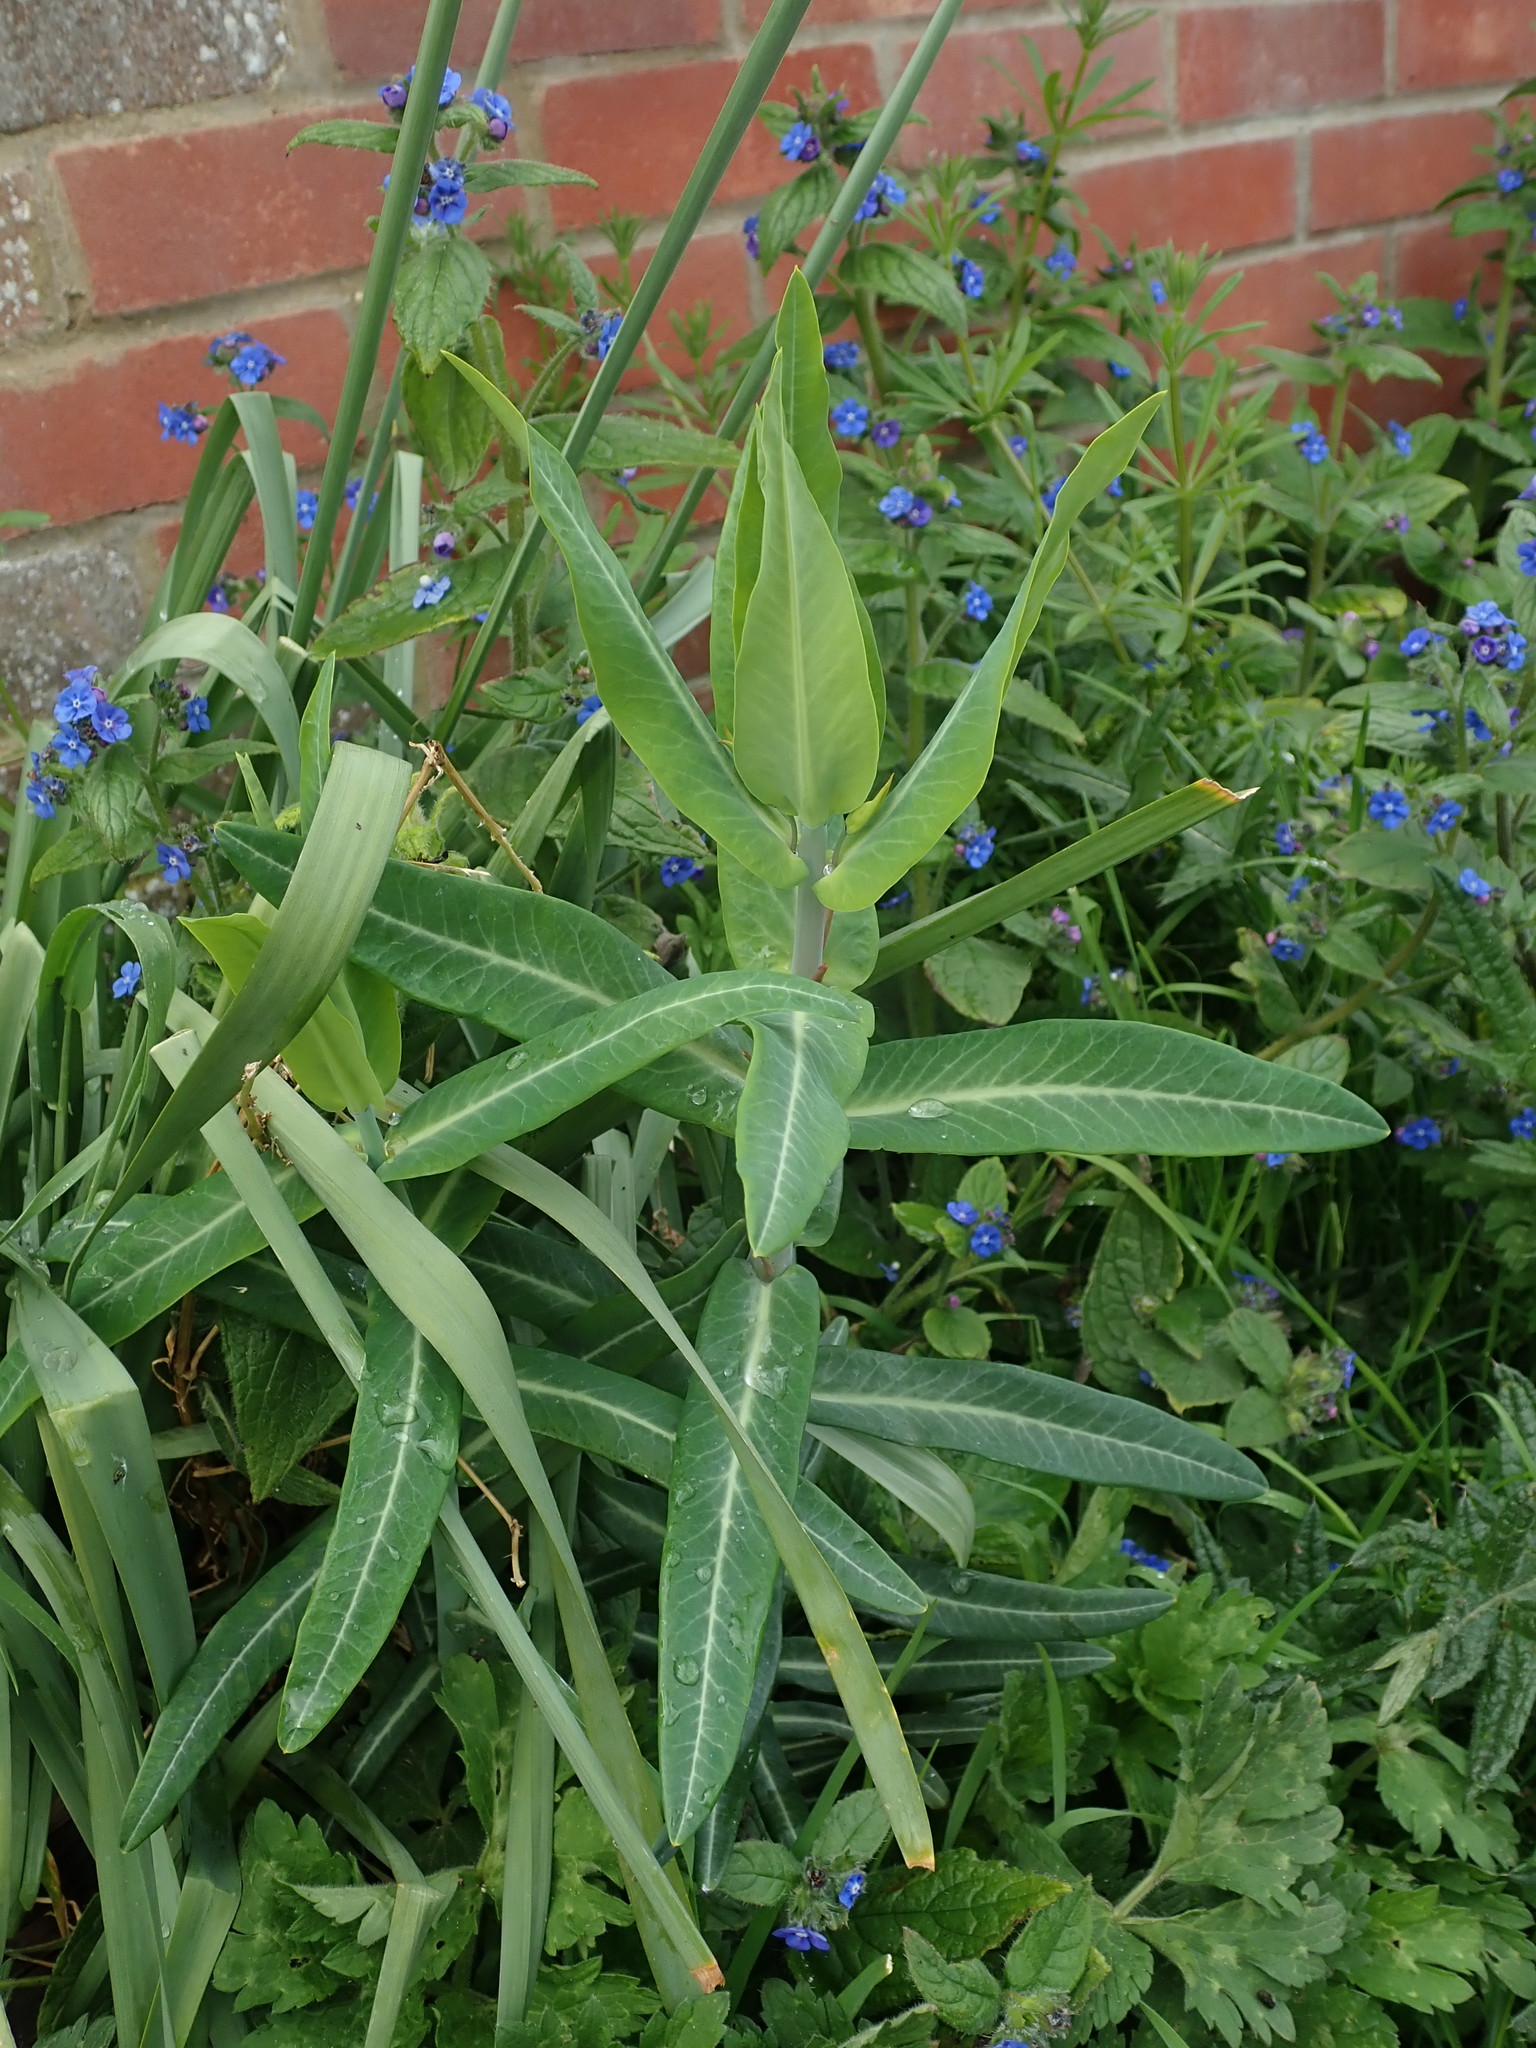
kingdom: Plantae
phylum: Tracheophyta
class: Magnoliopsida
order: Malpighiales
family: Euphorbiaceae
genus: Euphorbia
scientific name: Euphorbia lathyris
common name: Caper spurge
